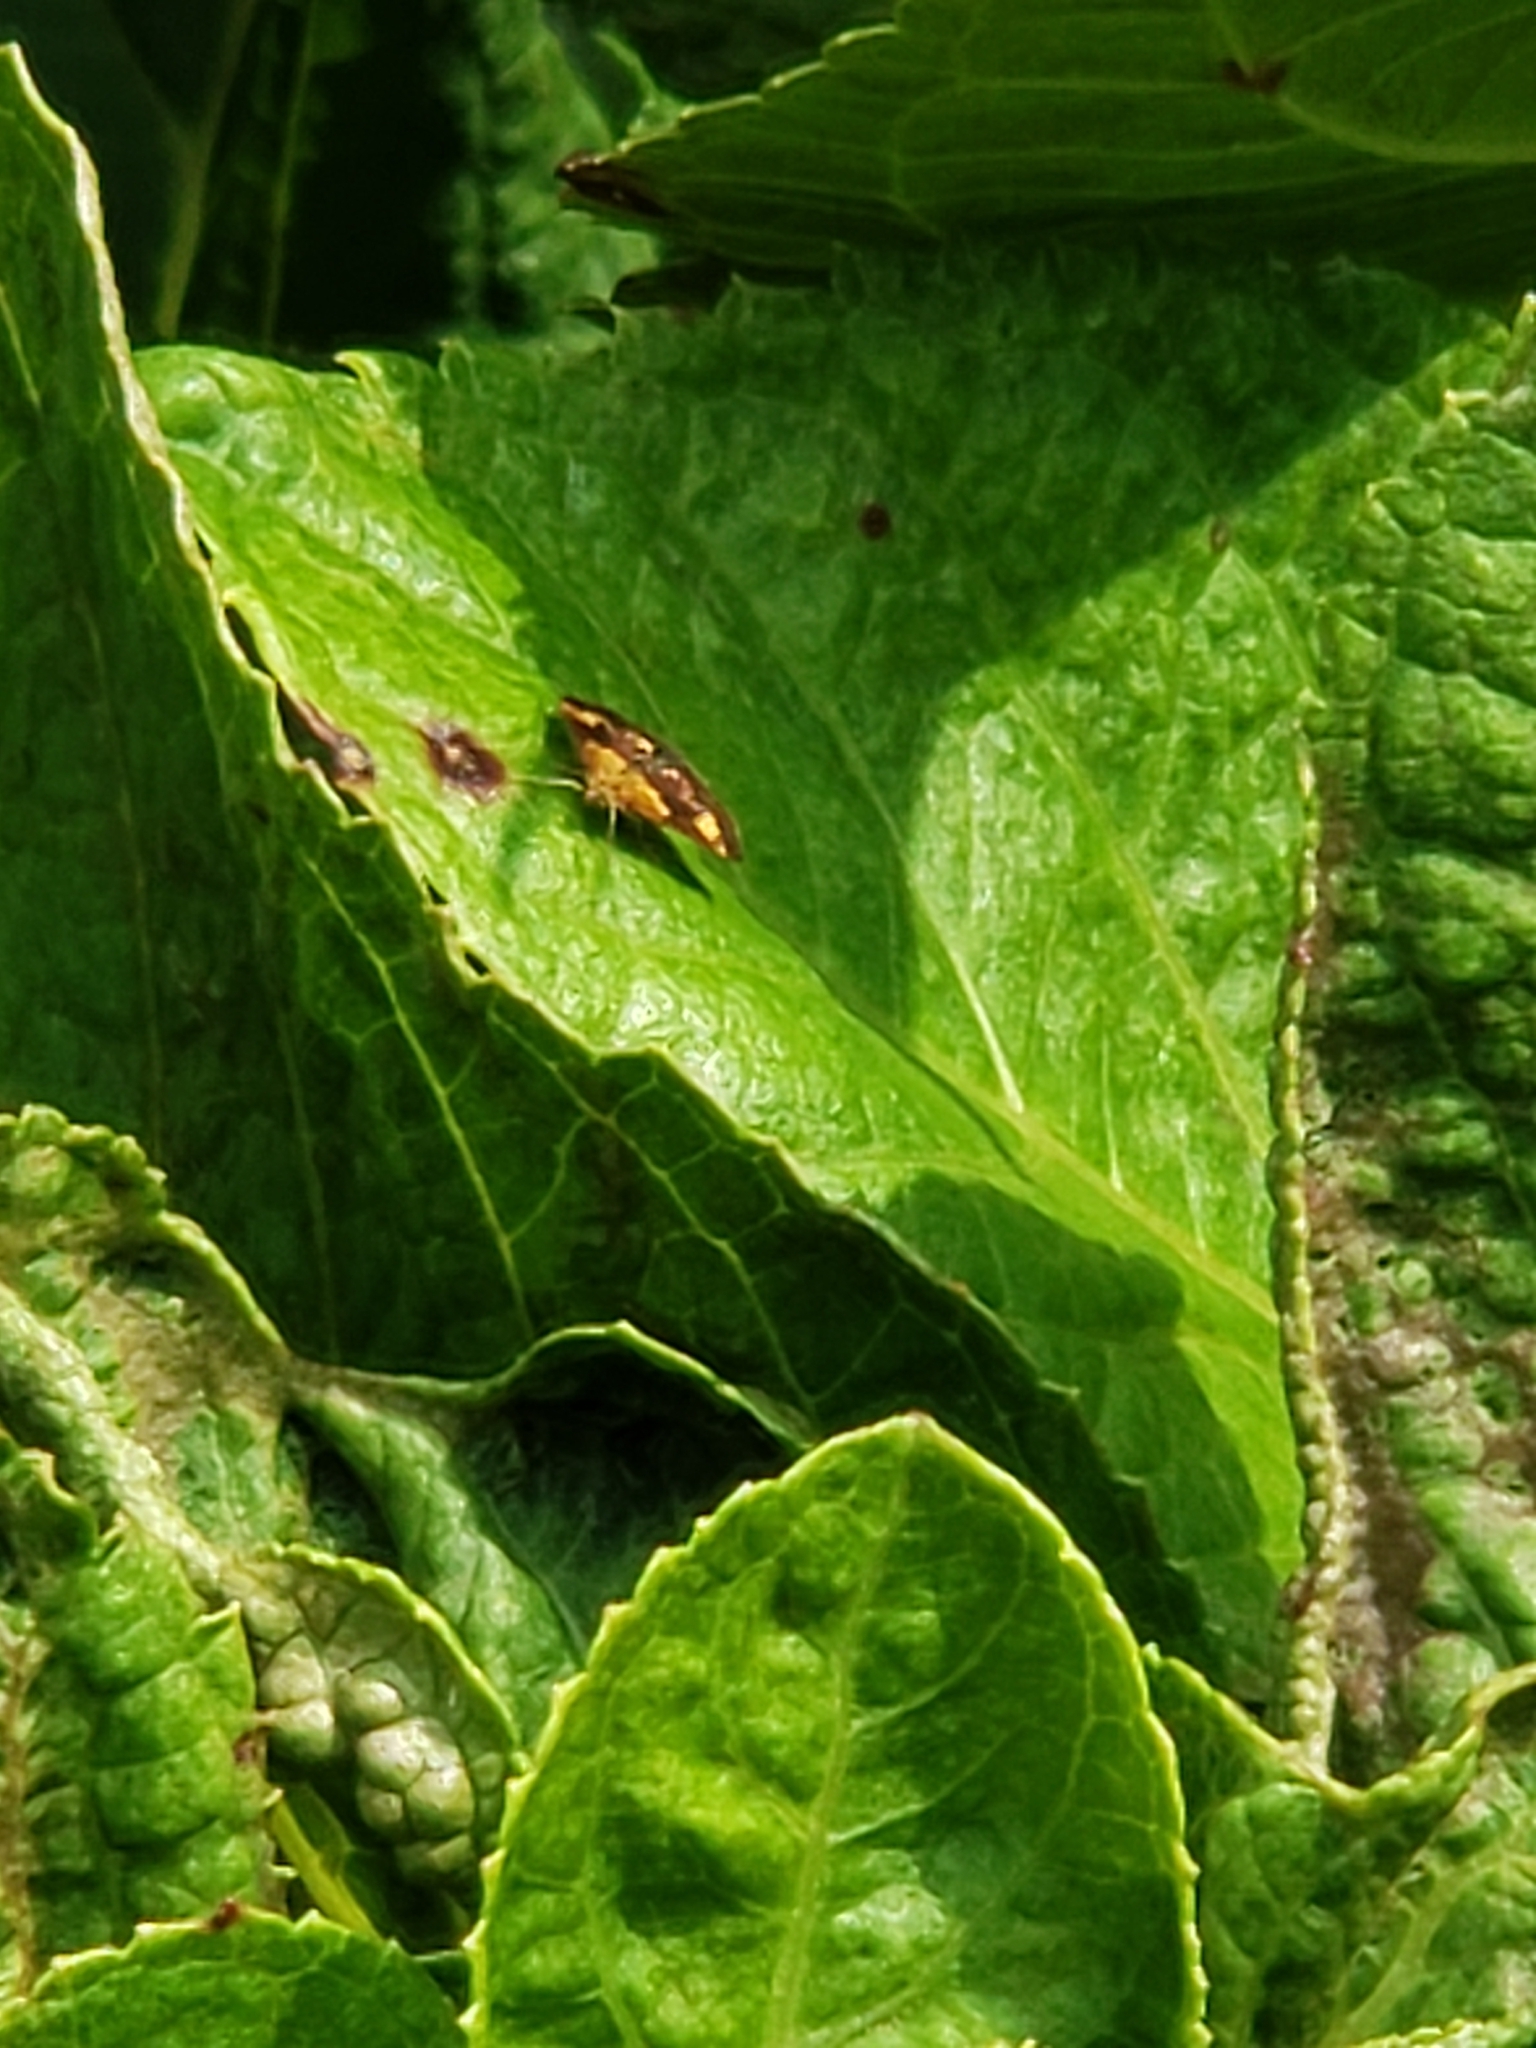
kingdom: Animalia
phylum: Arthropoda
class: Insecta
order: Lepidoptera
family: Crambidae
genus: Pyrausta
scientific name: Pyrausta orphisalis
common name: Orange mint moth
